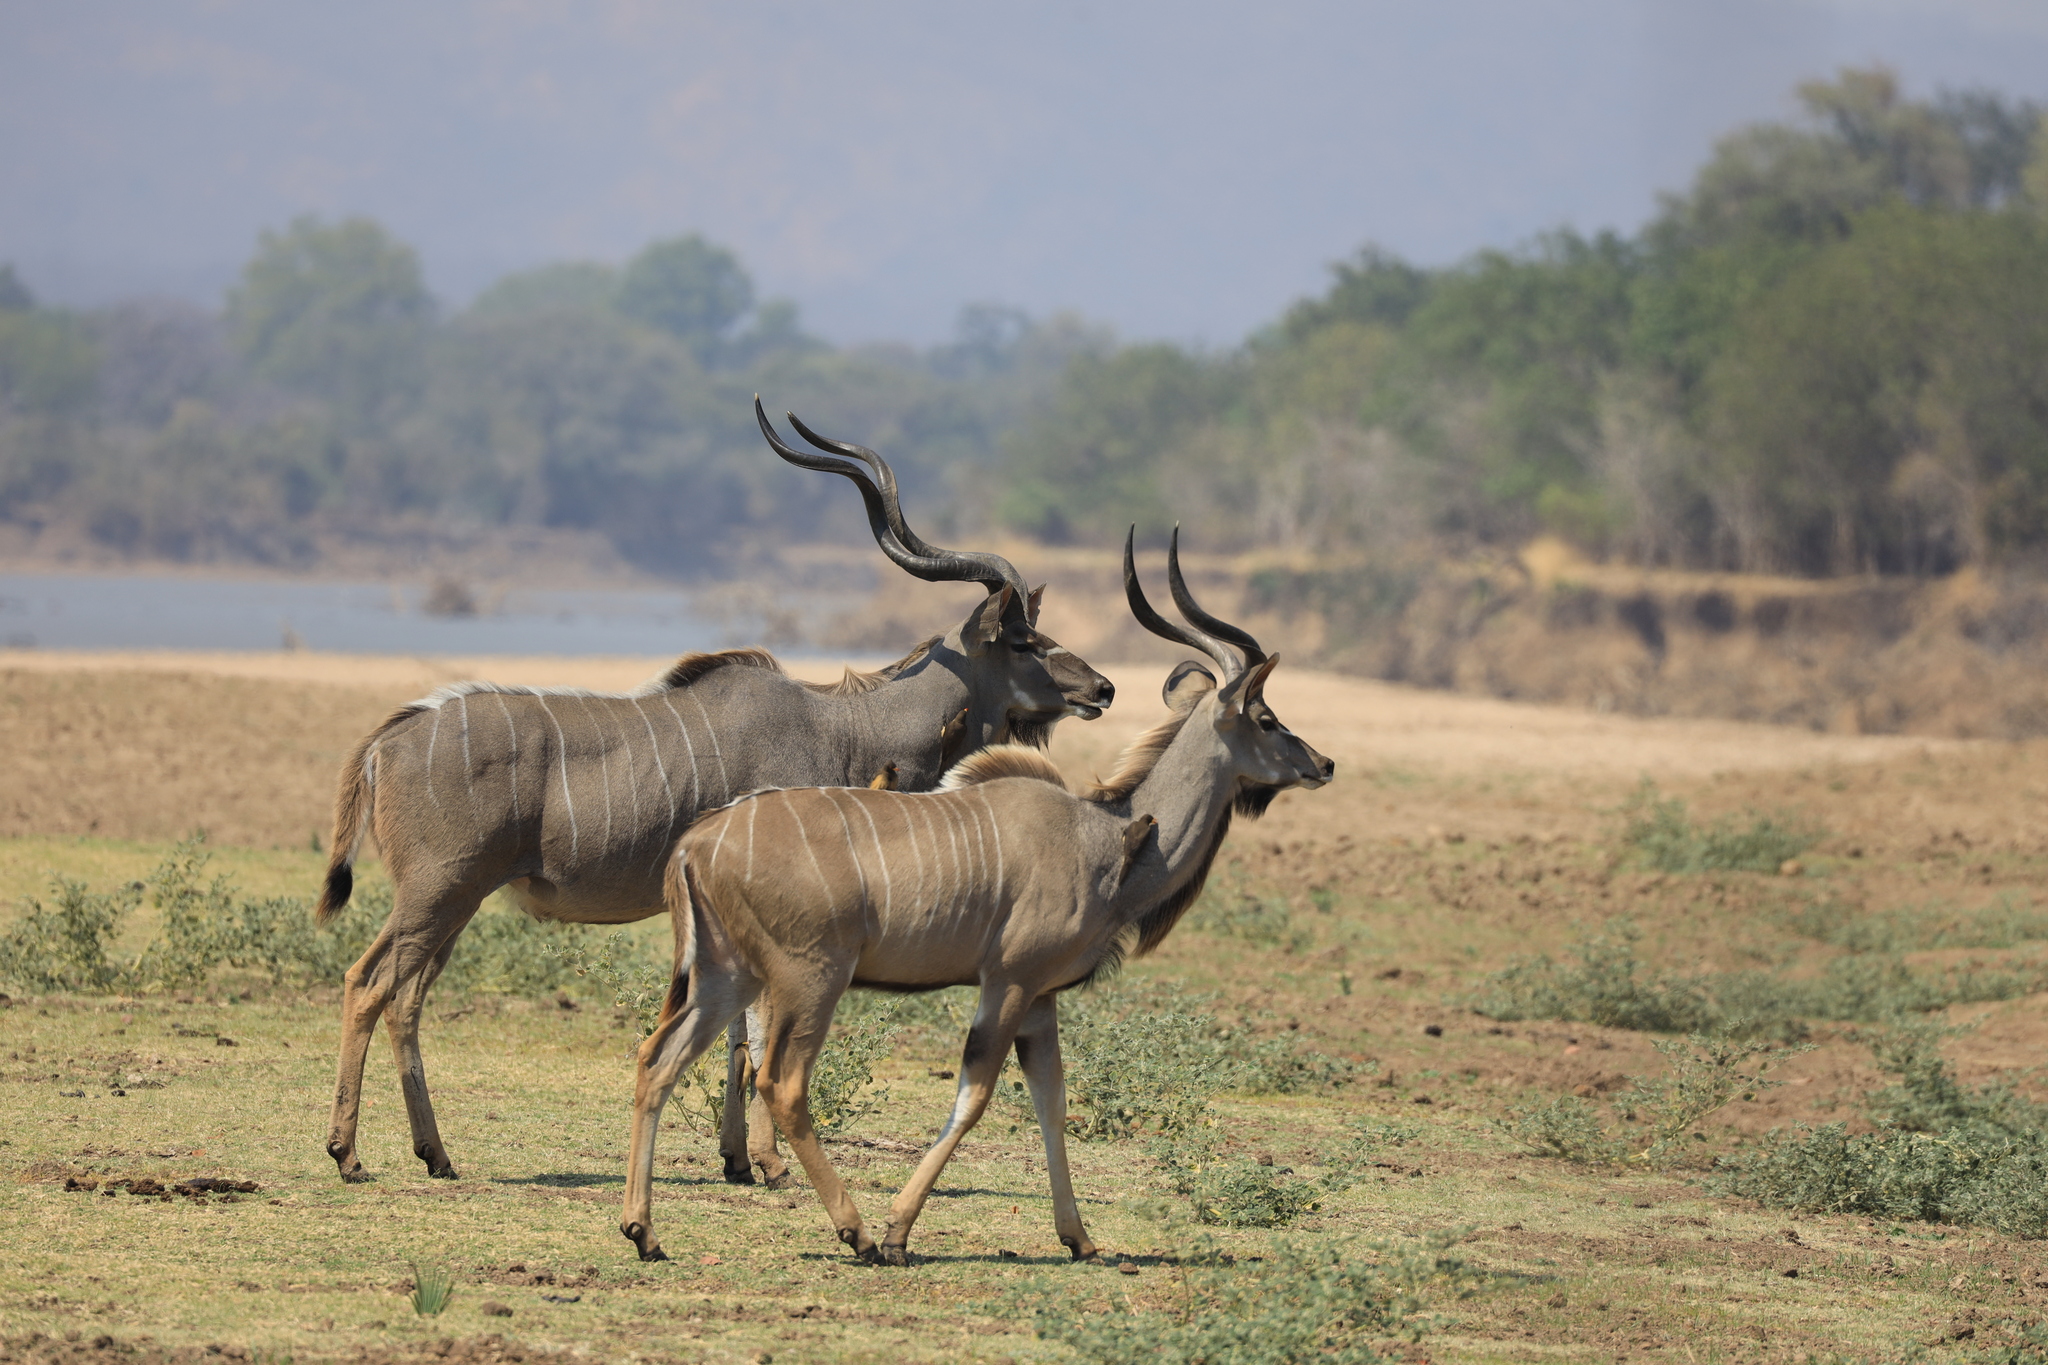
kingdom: Animalia
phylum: Chordata
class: Mammalia
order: Artiodactyla
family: Bovidae
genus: Tragelaphus
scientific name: Tragelaphus strepsiceros
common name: Greater kudu
